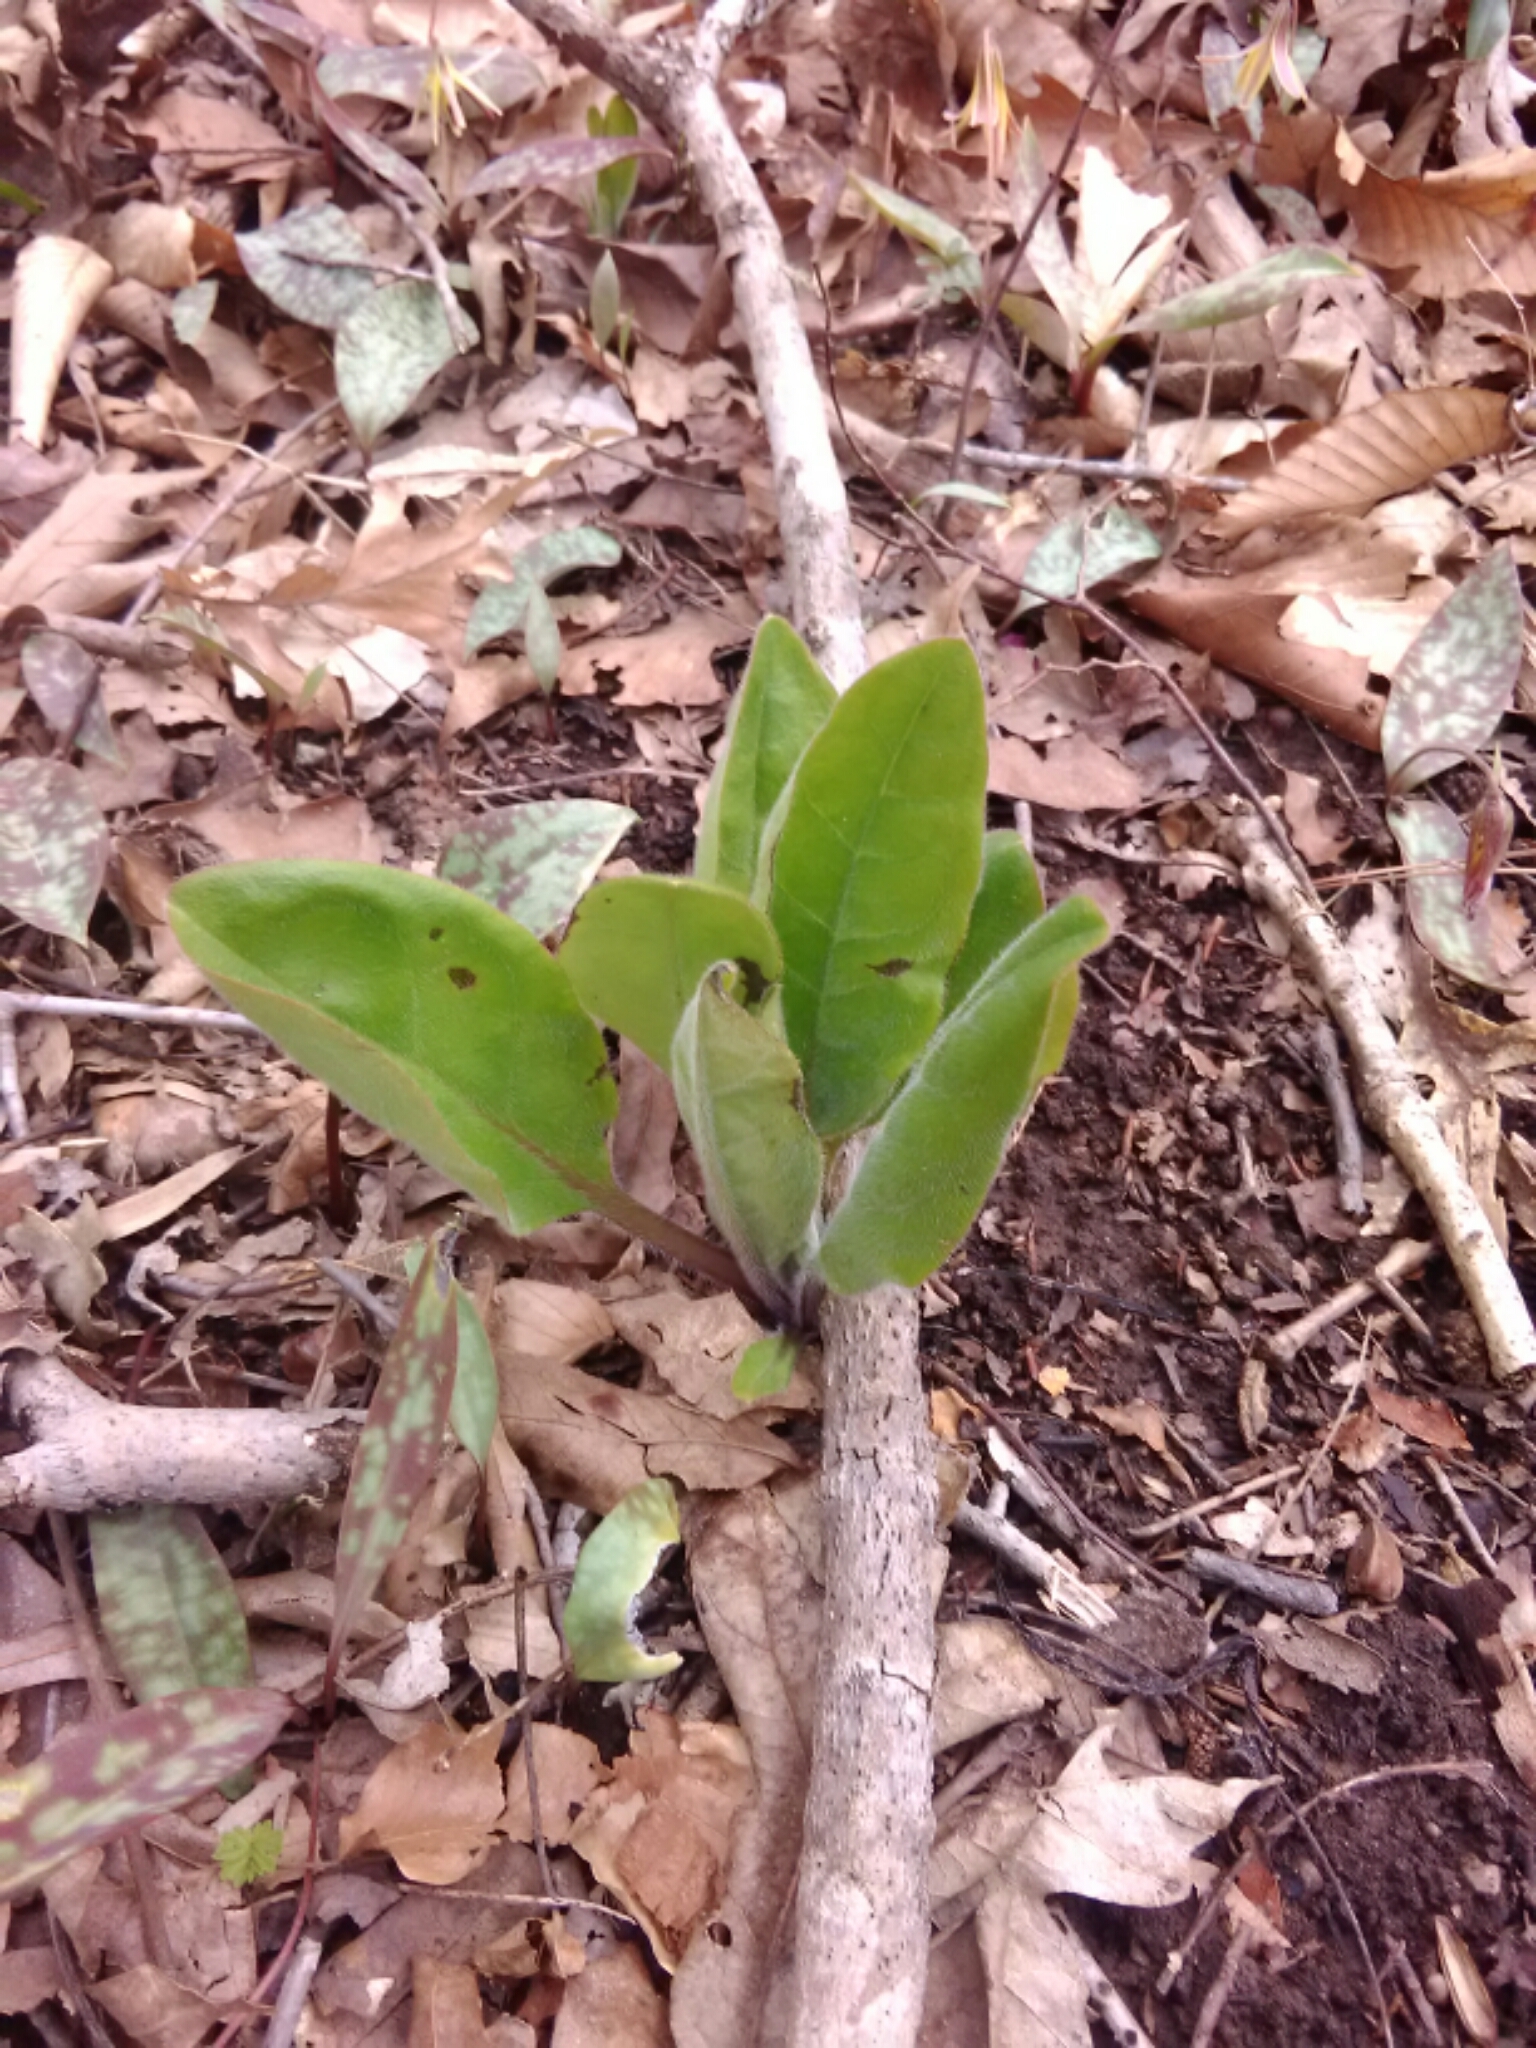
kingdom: Plantae
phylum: Tracheophyta
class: Magnoliopsida
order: Boraginales
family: Boraginaceae
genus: Andersonglossum
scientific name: Andersonglossum virginianum
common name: Wild comfrey
